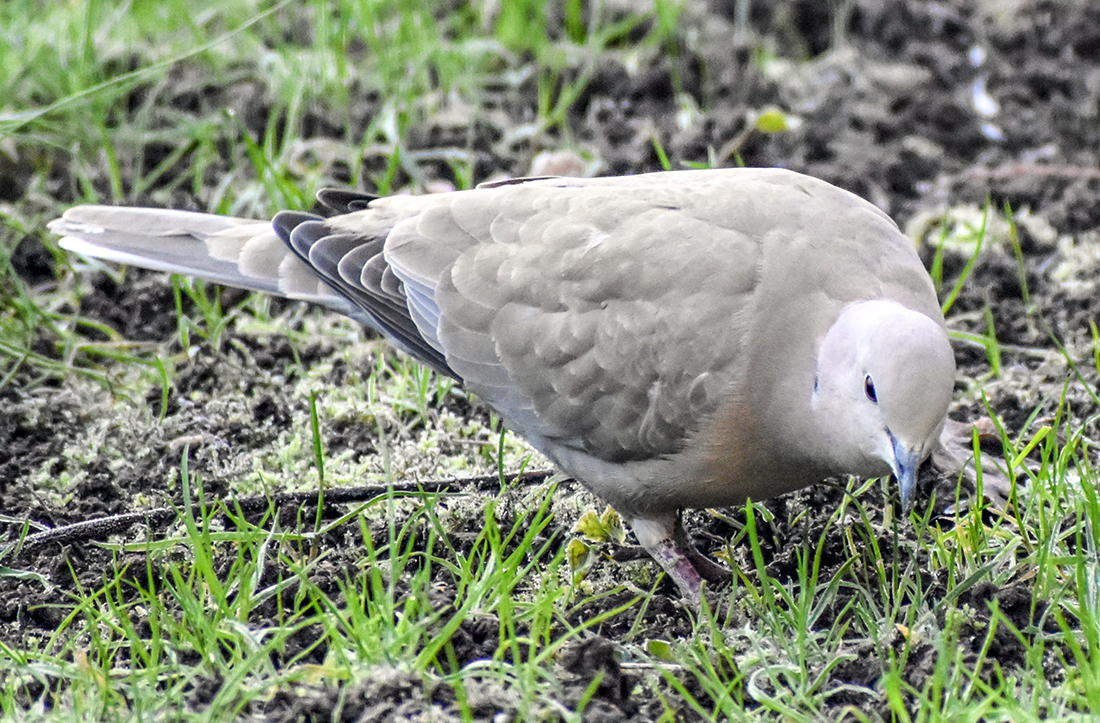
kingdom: Animalia
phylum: Chordata
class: Aves
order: Columbiformes
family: Columbidae
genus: Streptopelia
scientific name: Streptopelia decaocto
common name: Eurasian collared dove
